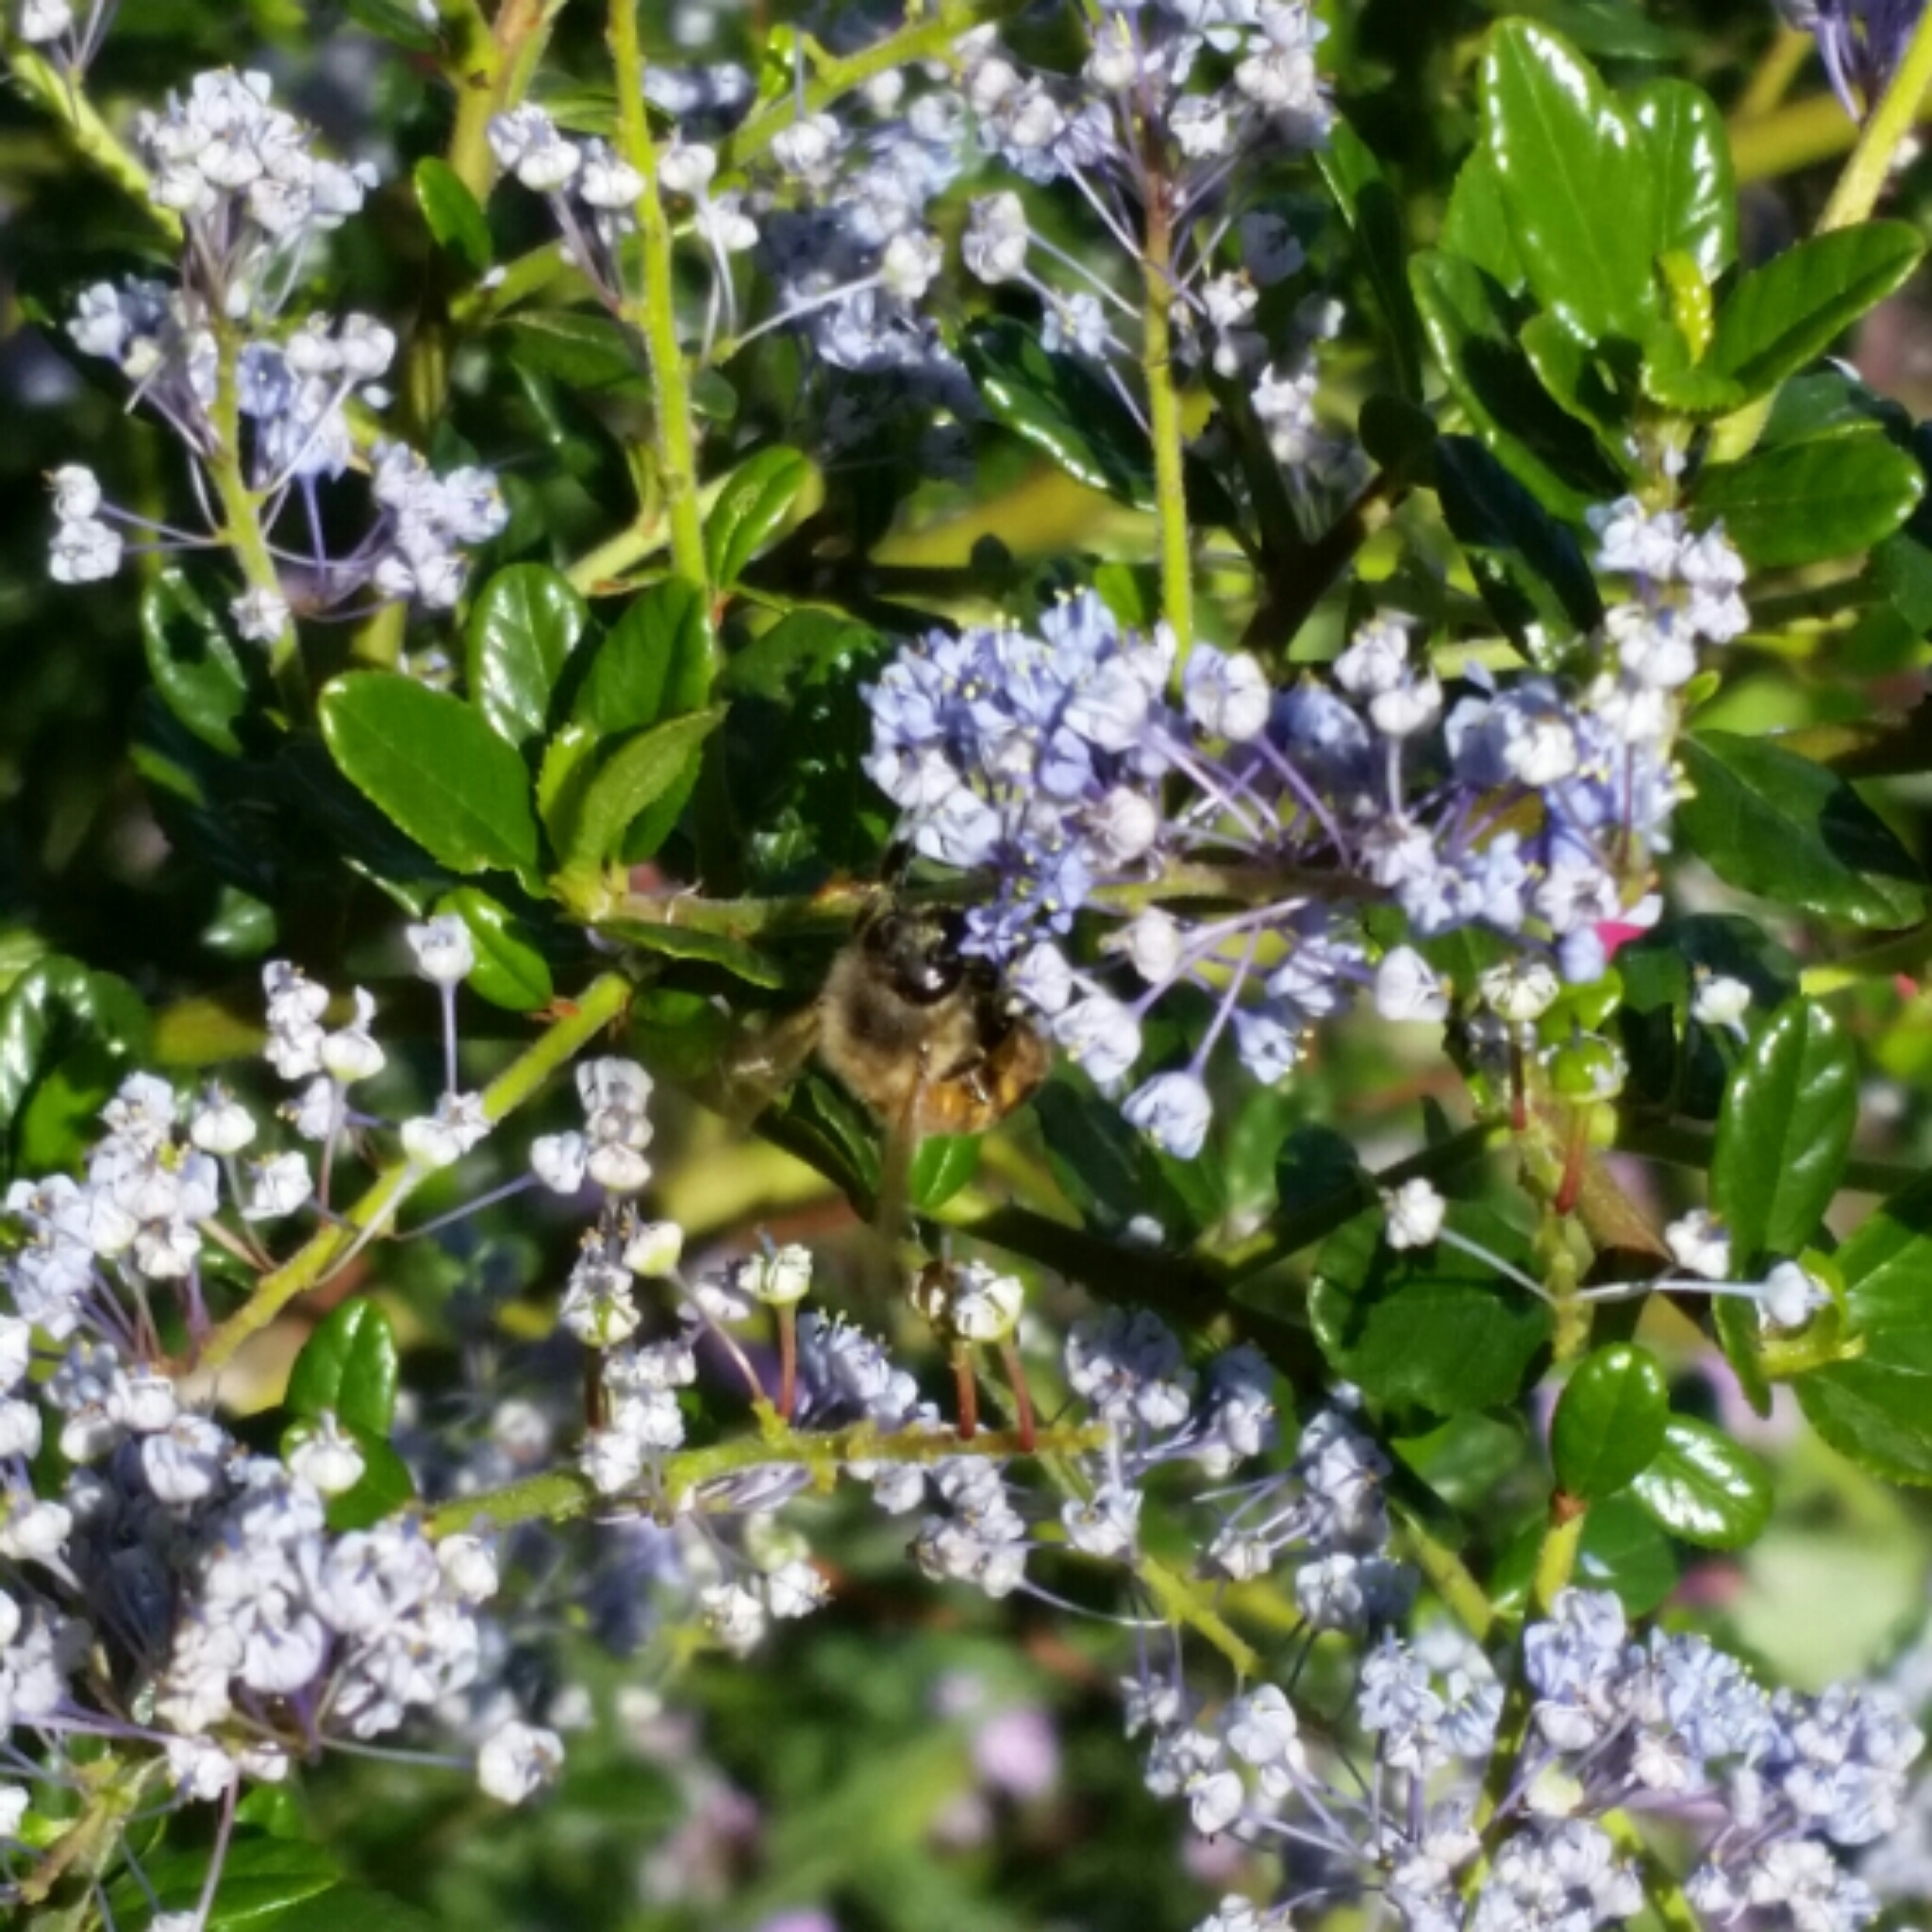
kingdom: Animalia
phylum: Arthropoda
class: Insecta
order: Hymenoptera
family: Apidae
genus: Apis
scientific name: Apis mellifera
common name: Honey bee
